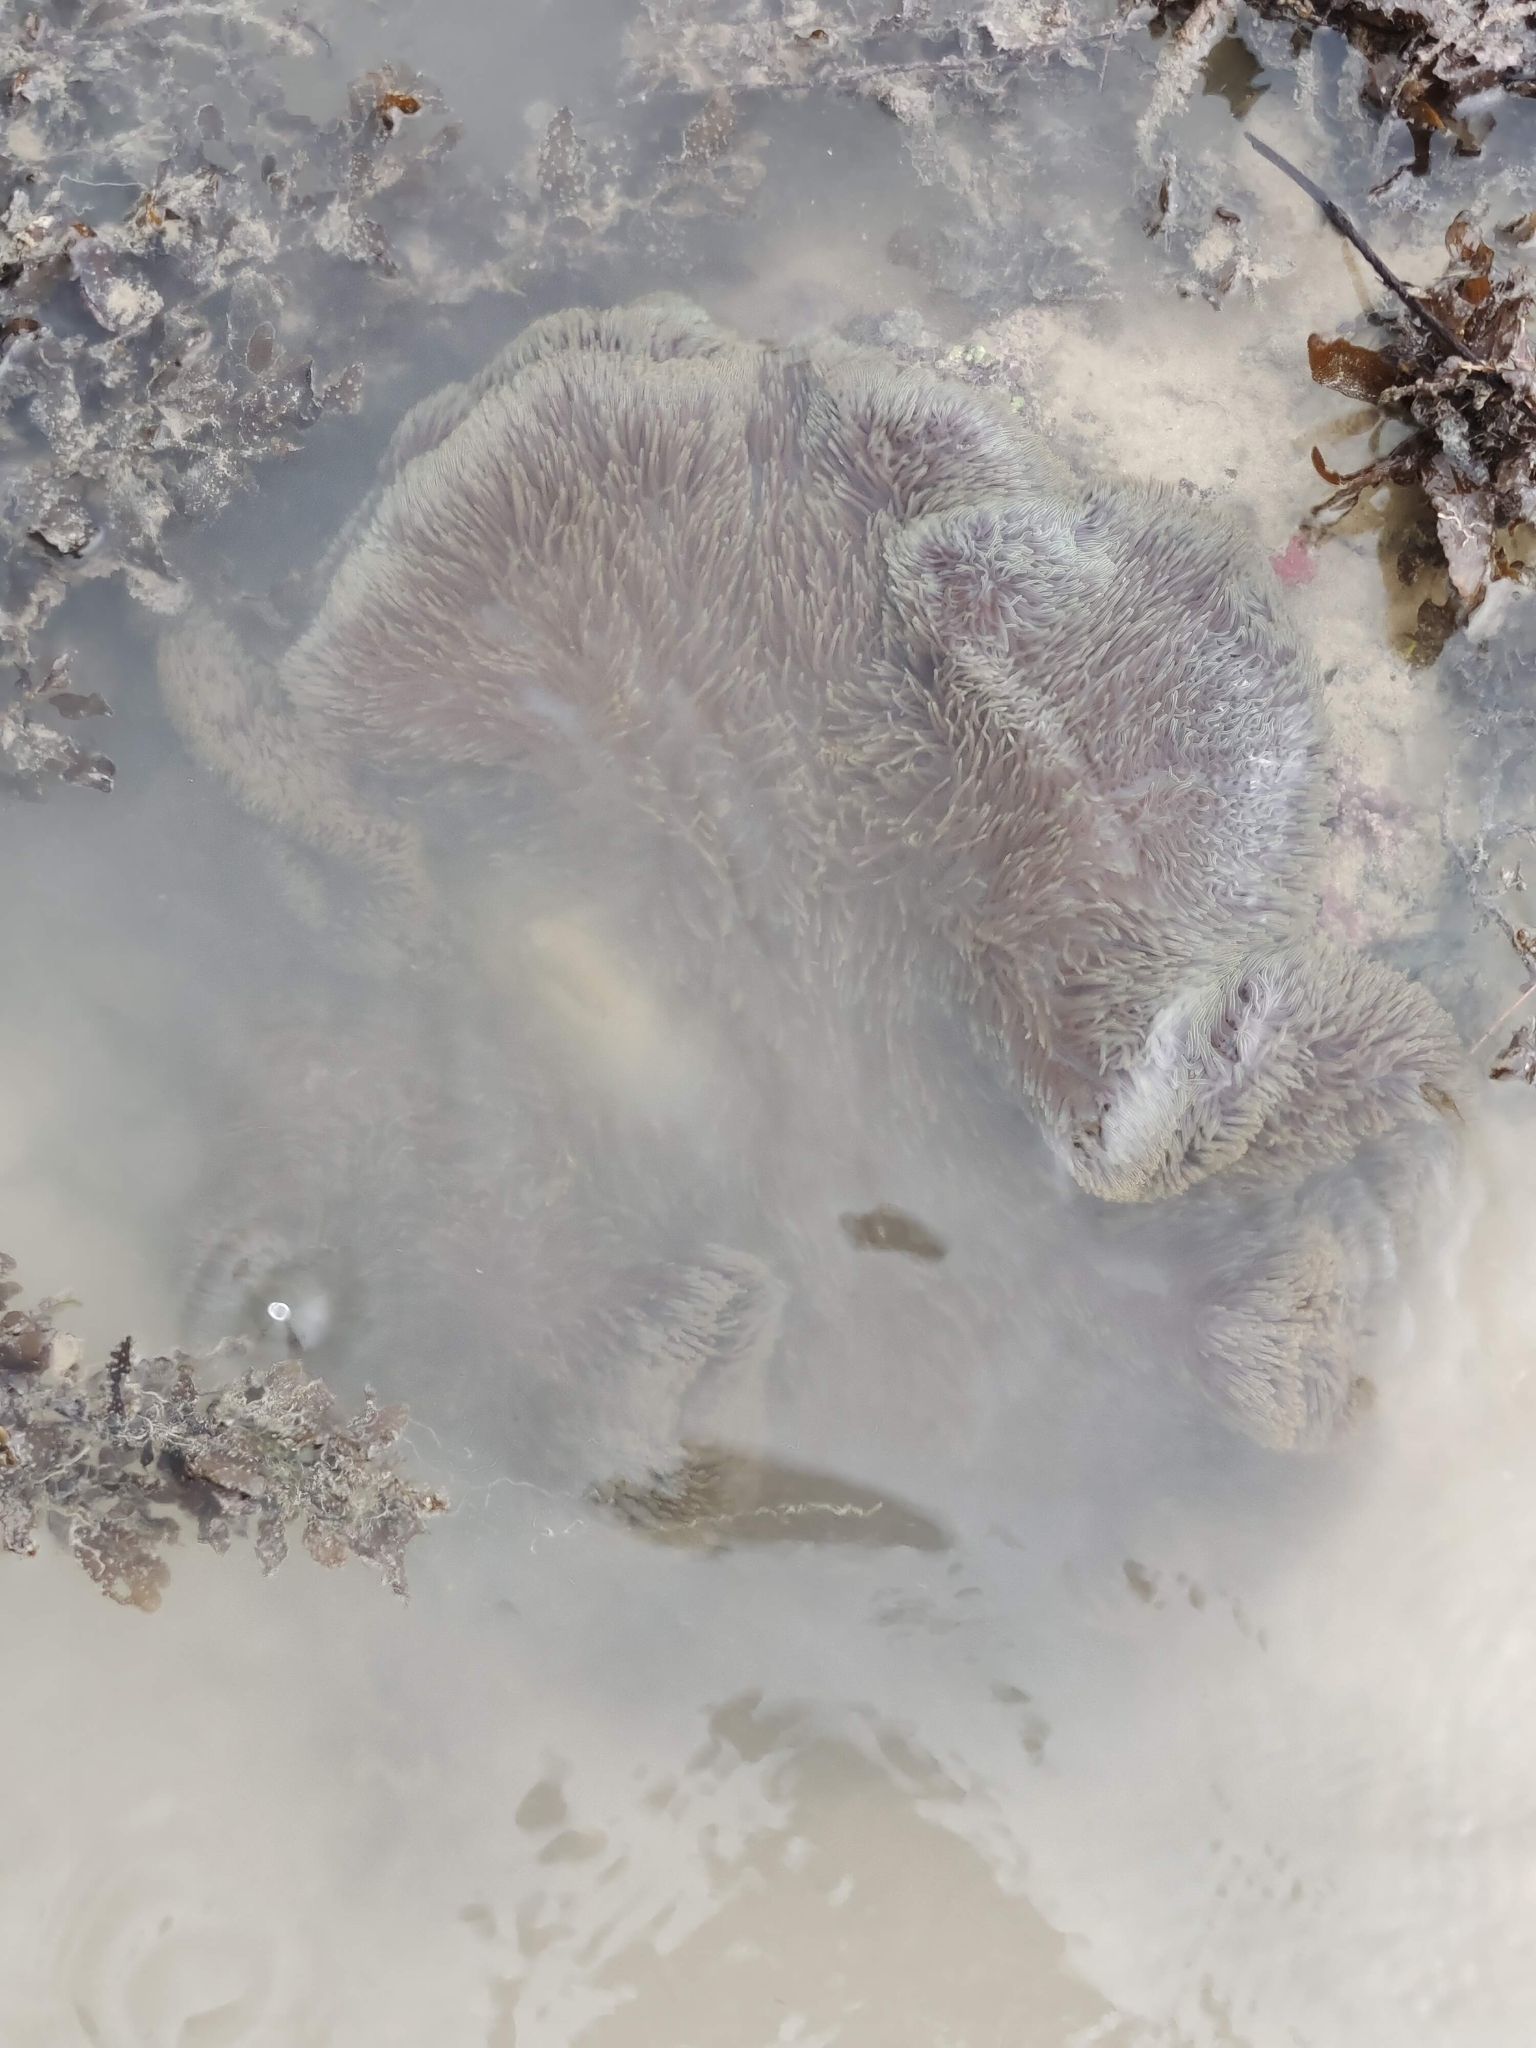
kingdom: Animalia
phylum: Cnidaria
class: Anthozoa
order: Actiniaria
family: Stichodactylidae
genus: Stichodactyla
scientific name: Stichodactyla gigantea
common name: Giant anemone
